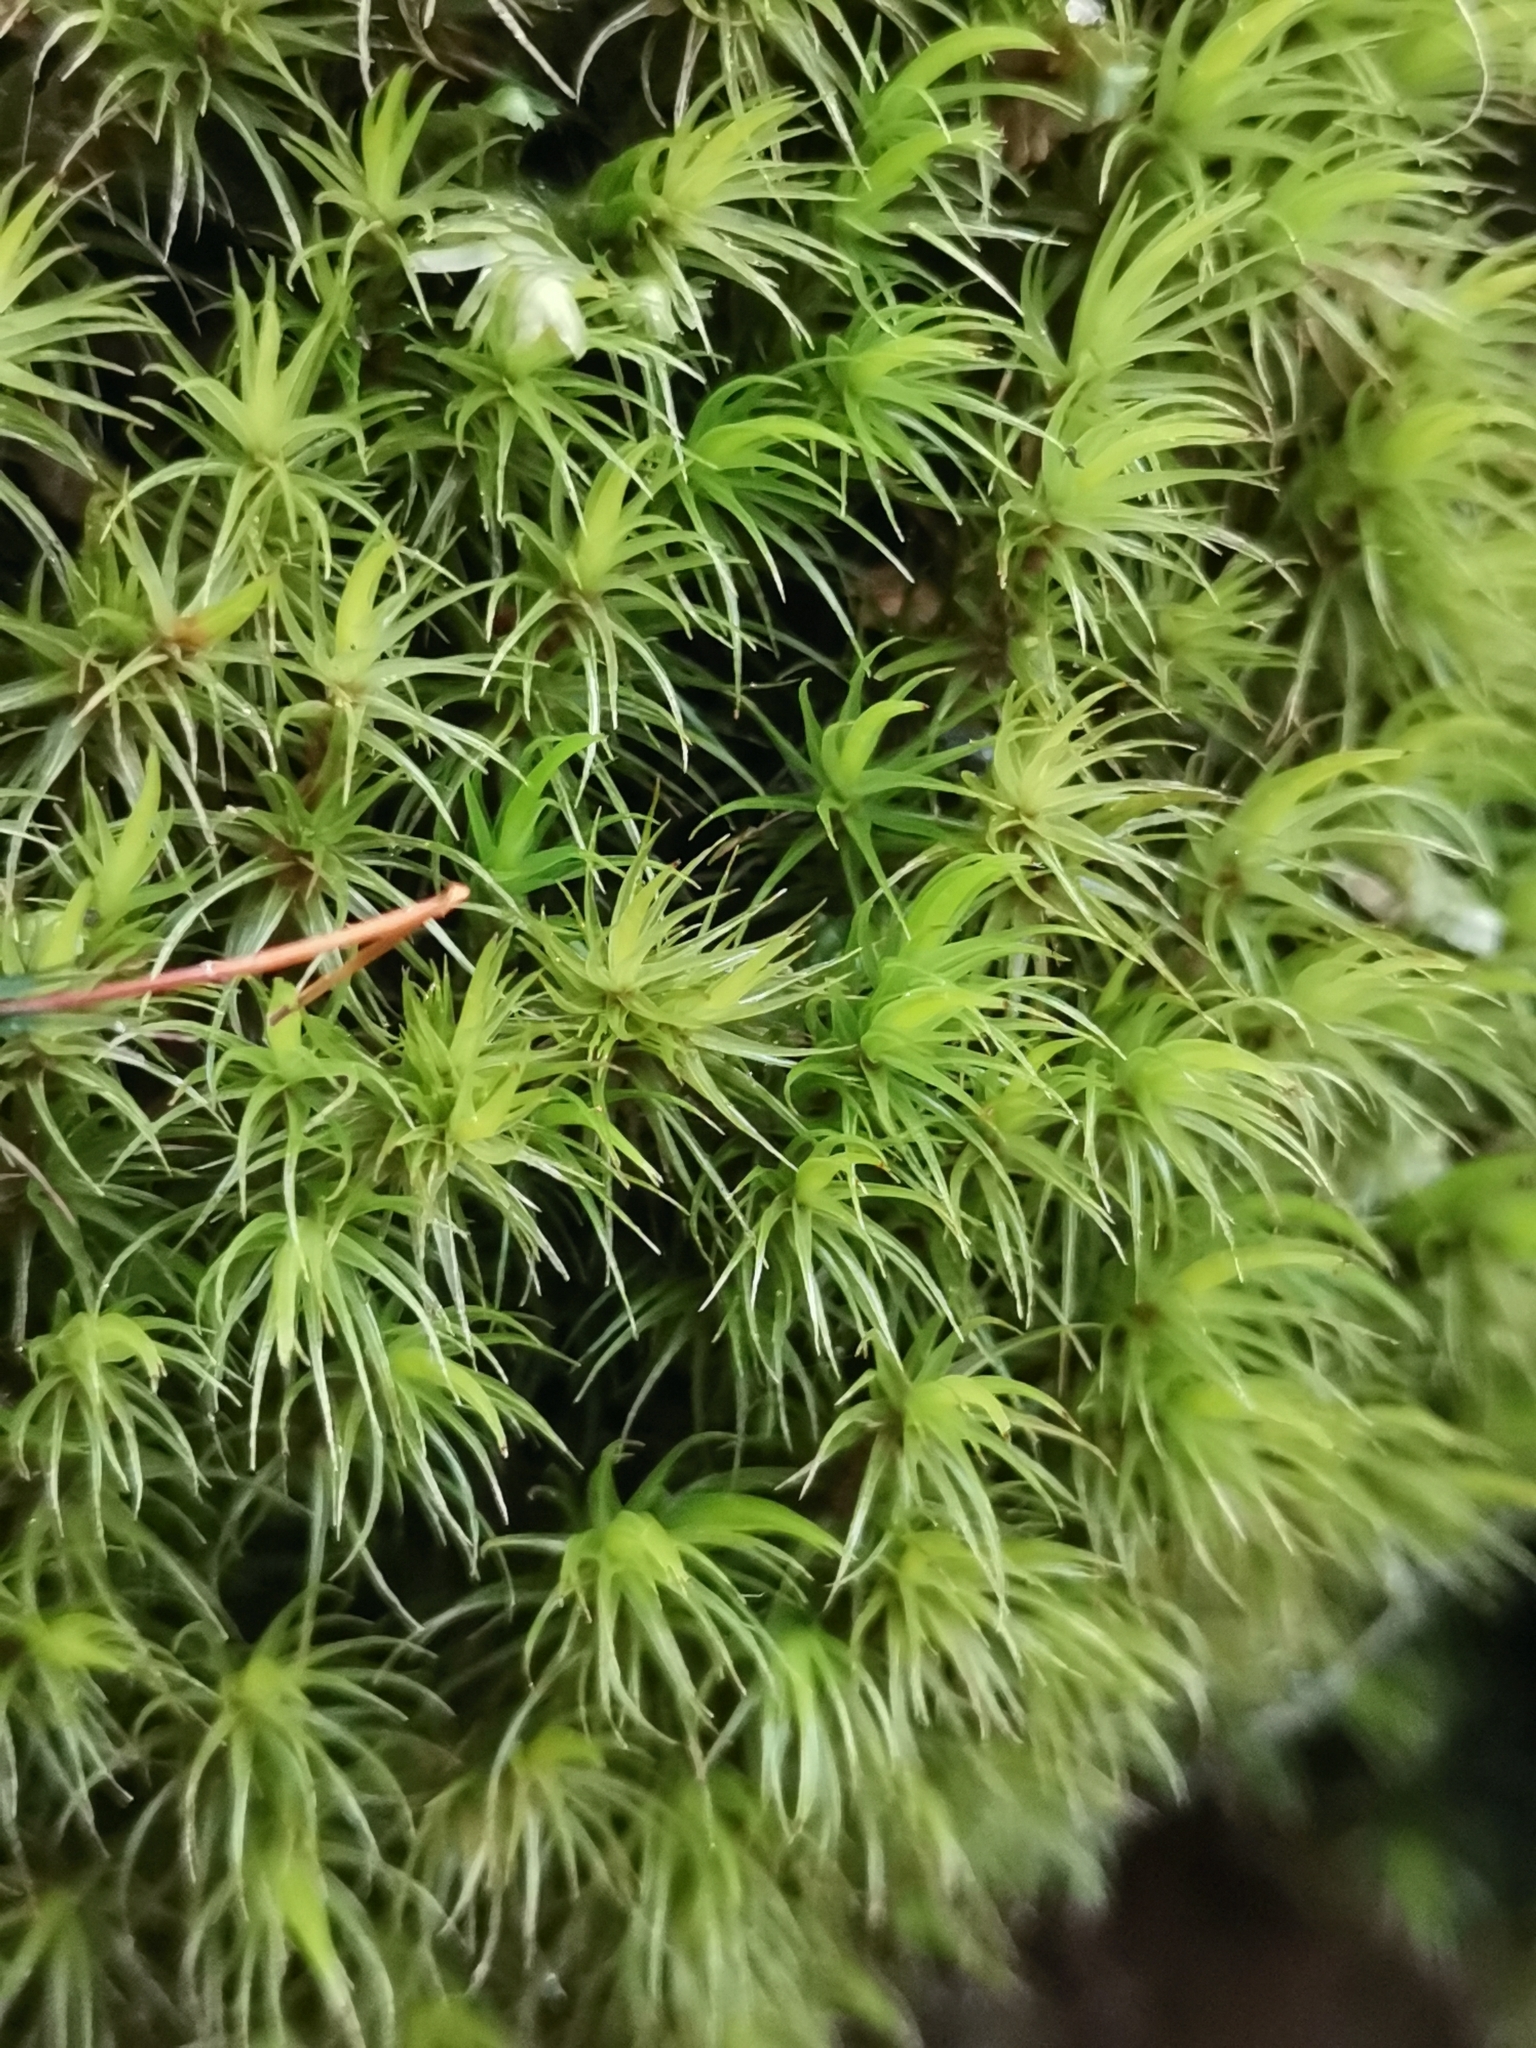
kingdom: Plantae
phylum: Bryophyta
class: Bryopsida
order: Dicranales
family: Dicranaceae
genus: Dicranum
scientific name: Dicranum scoparium
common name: Broom fork-moss
